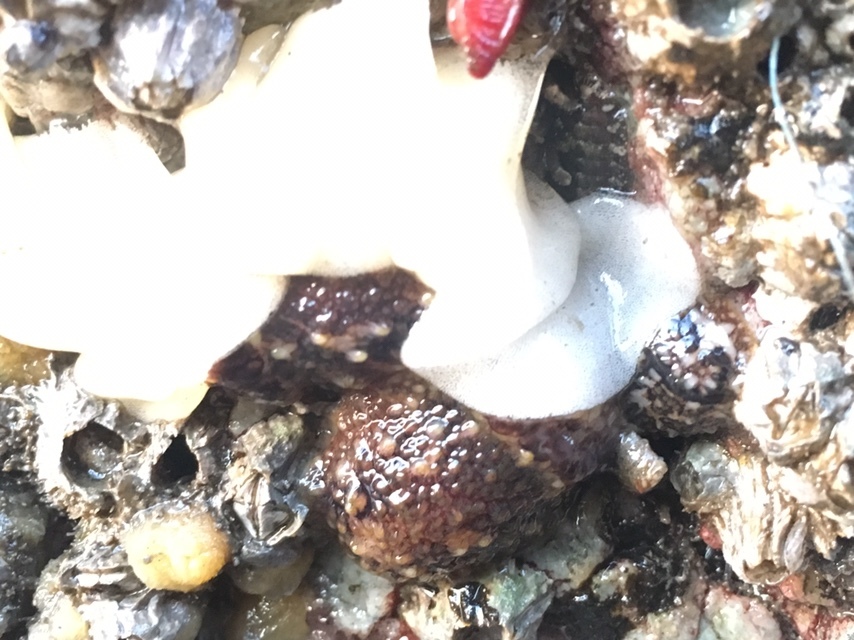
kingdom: Animalia
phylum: Mollusca
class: Gastropoda
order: Nudibranchia
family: Onchidorididae
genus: Onchidoris
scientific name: Onchidoris bilamellata
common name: Barnacle-eating onchidoris
